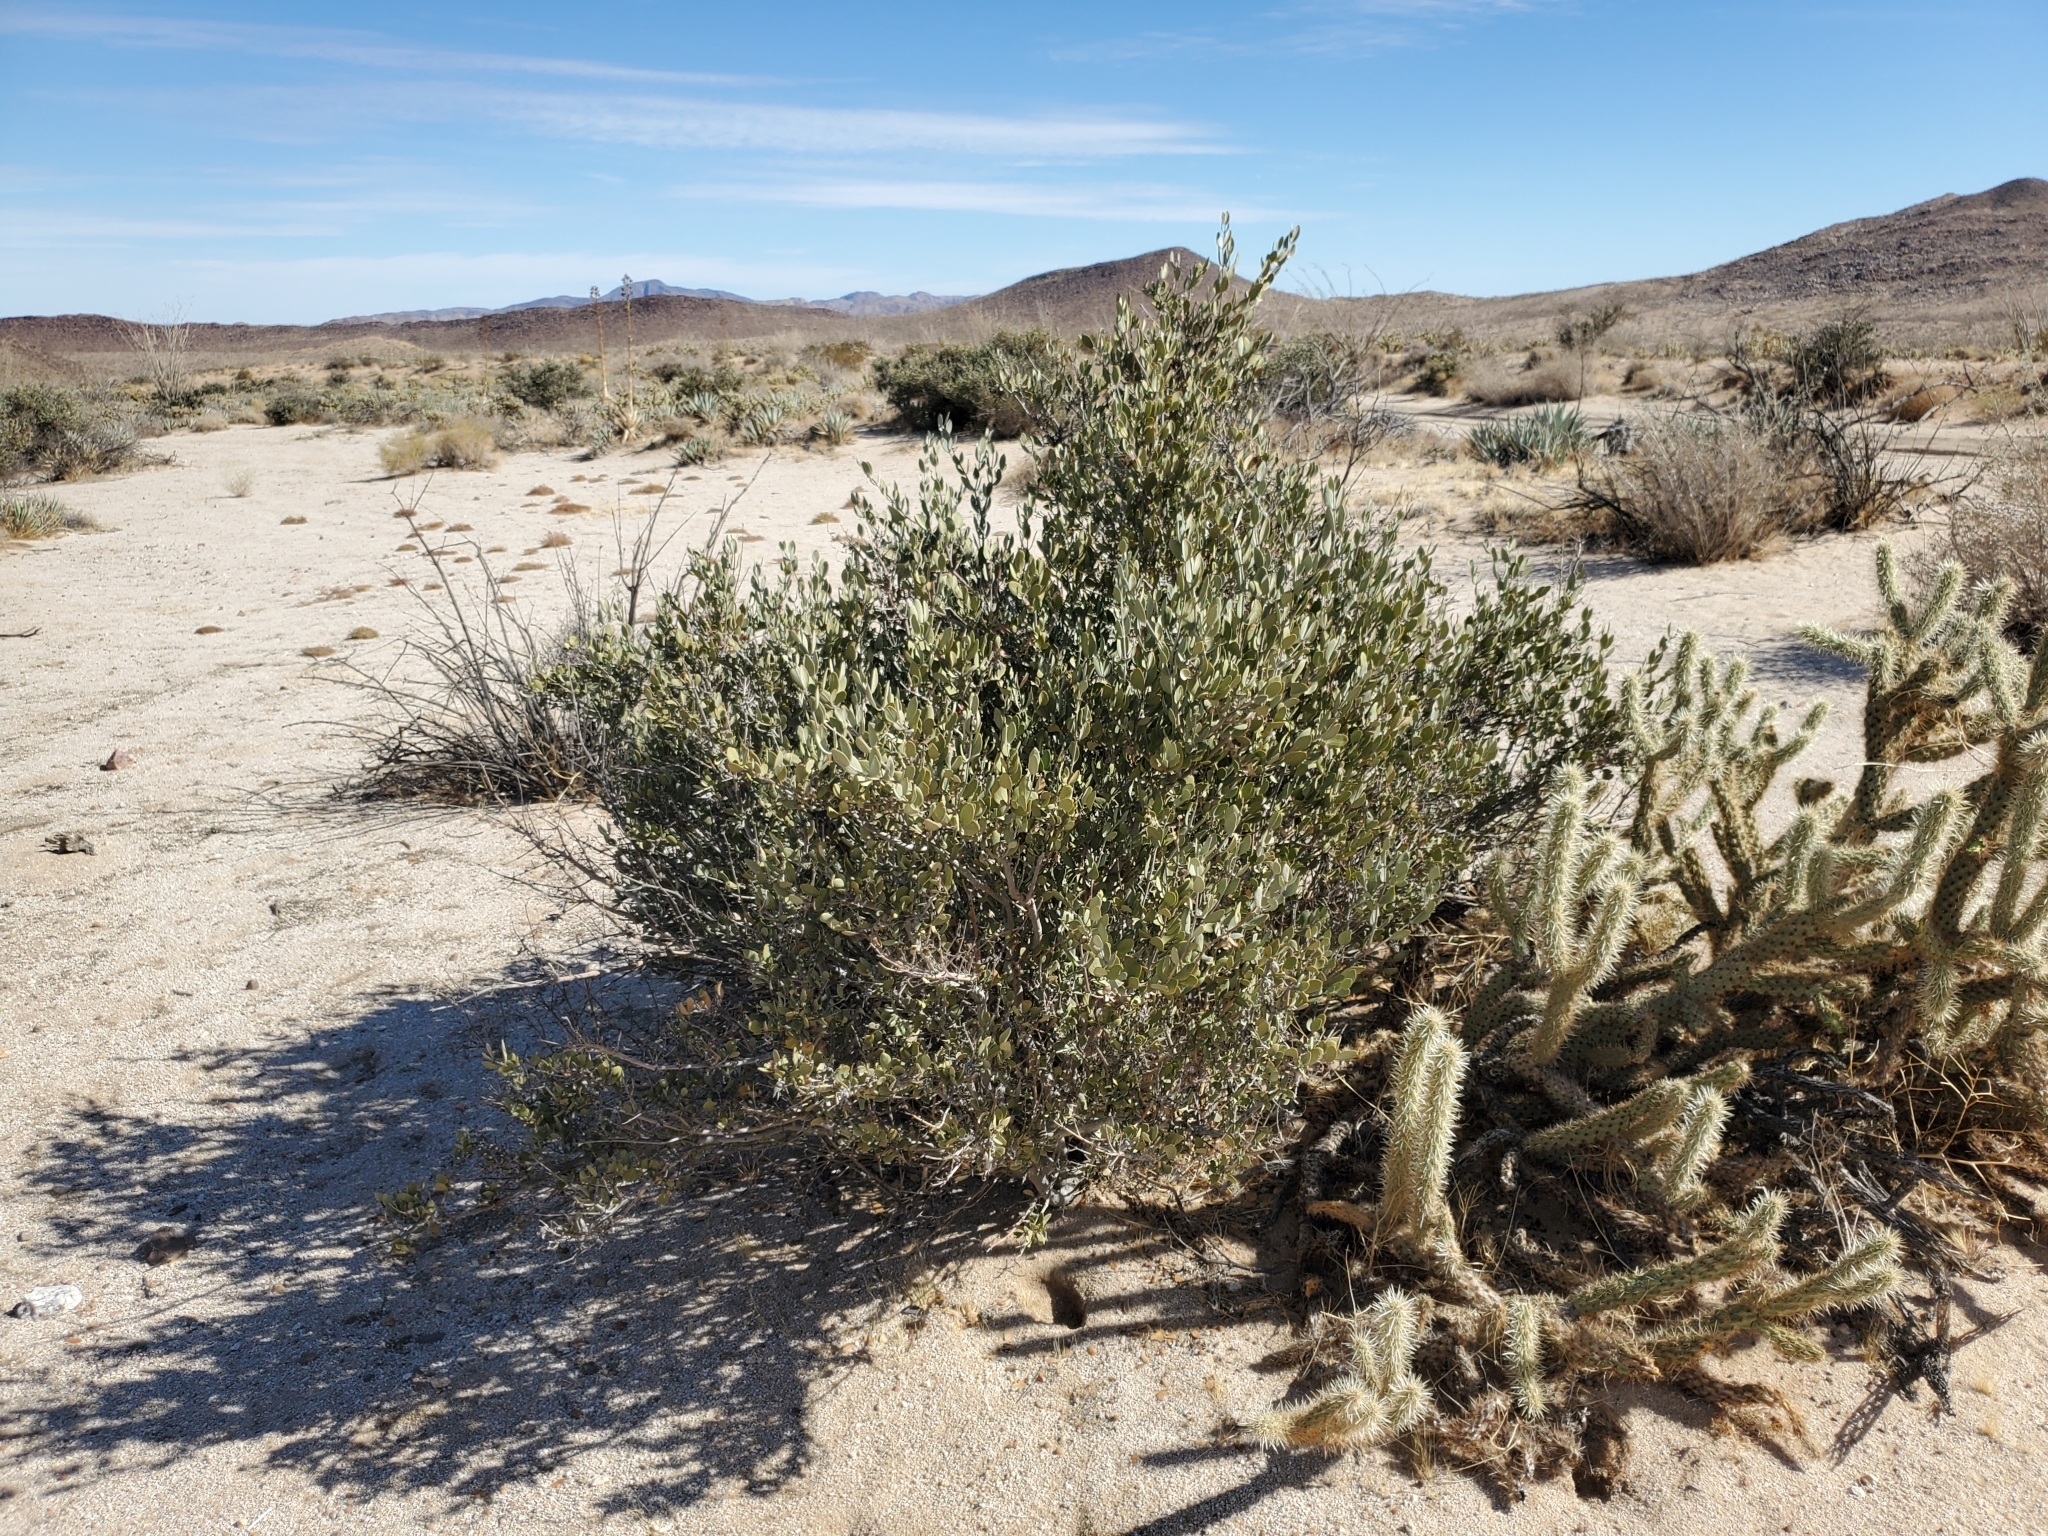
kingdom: Plantae
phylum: Tracheophyta
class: Magnoliopsida
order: Caryophyllales
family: Simmondsiaceae
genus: Simmondsia
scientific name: Simmondsia chinensis
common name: Jojoba
